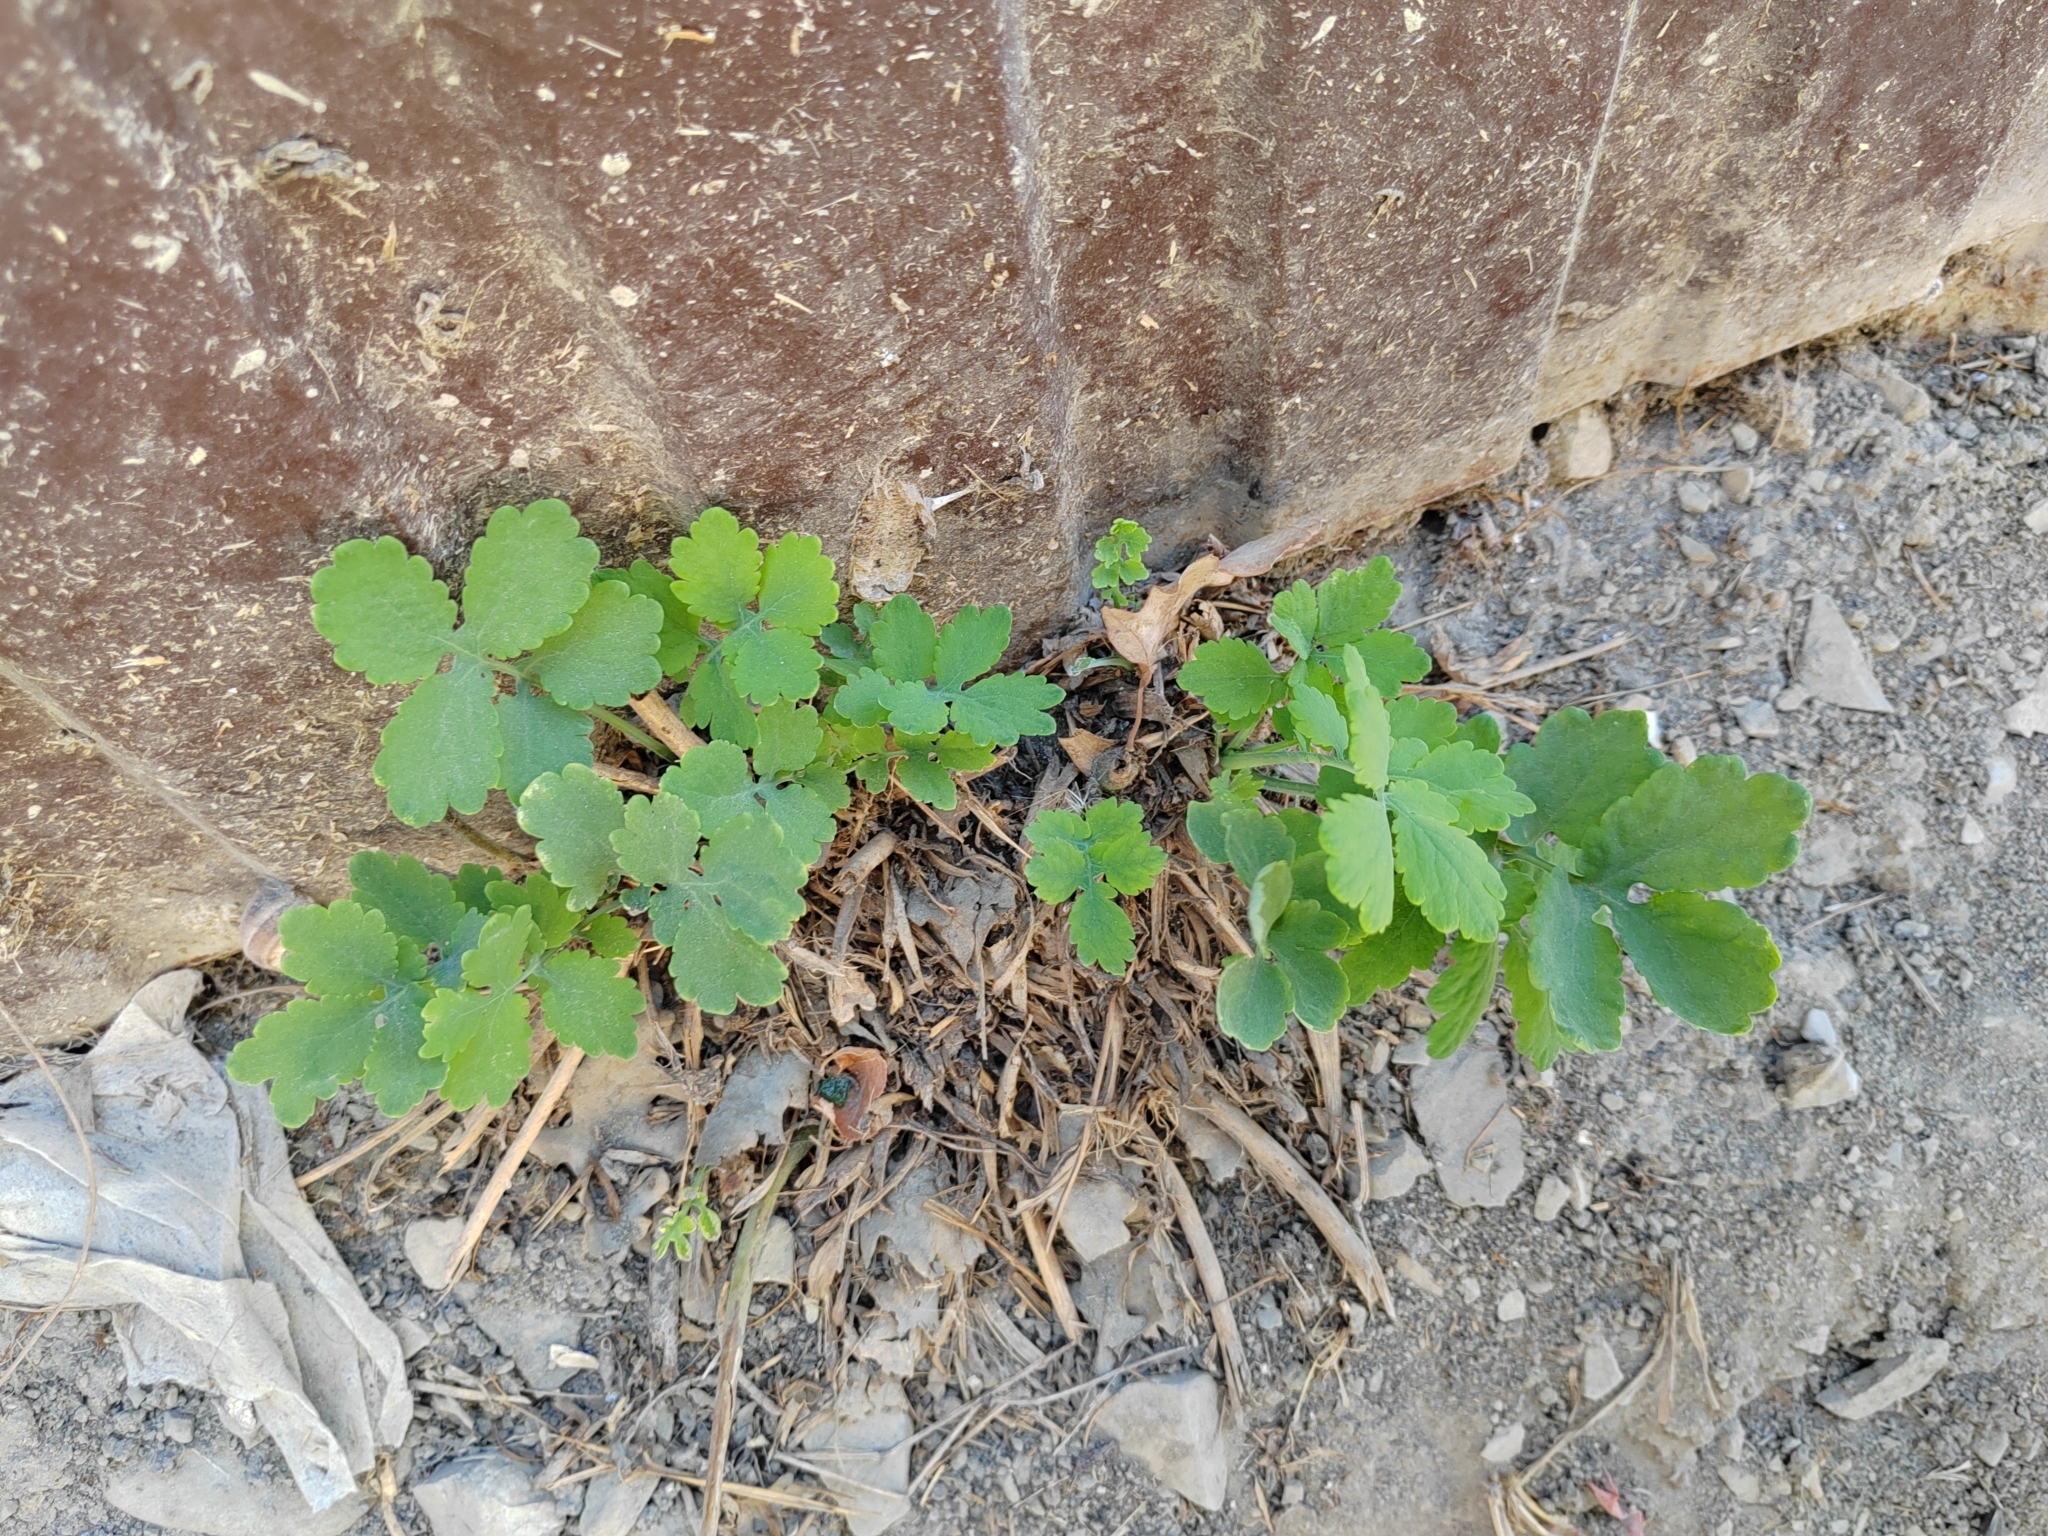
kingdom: Plantae
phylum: Tracheophyta
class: Magnoliopsida
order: Ranunculales
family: Papaveraceae
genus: Chelidonium
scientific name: Chelidonium majus
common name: Greater celandine
